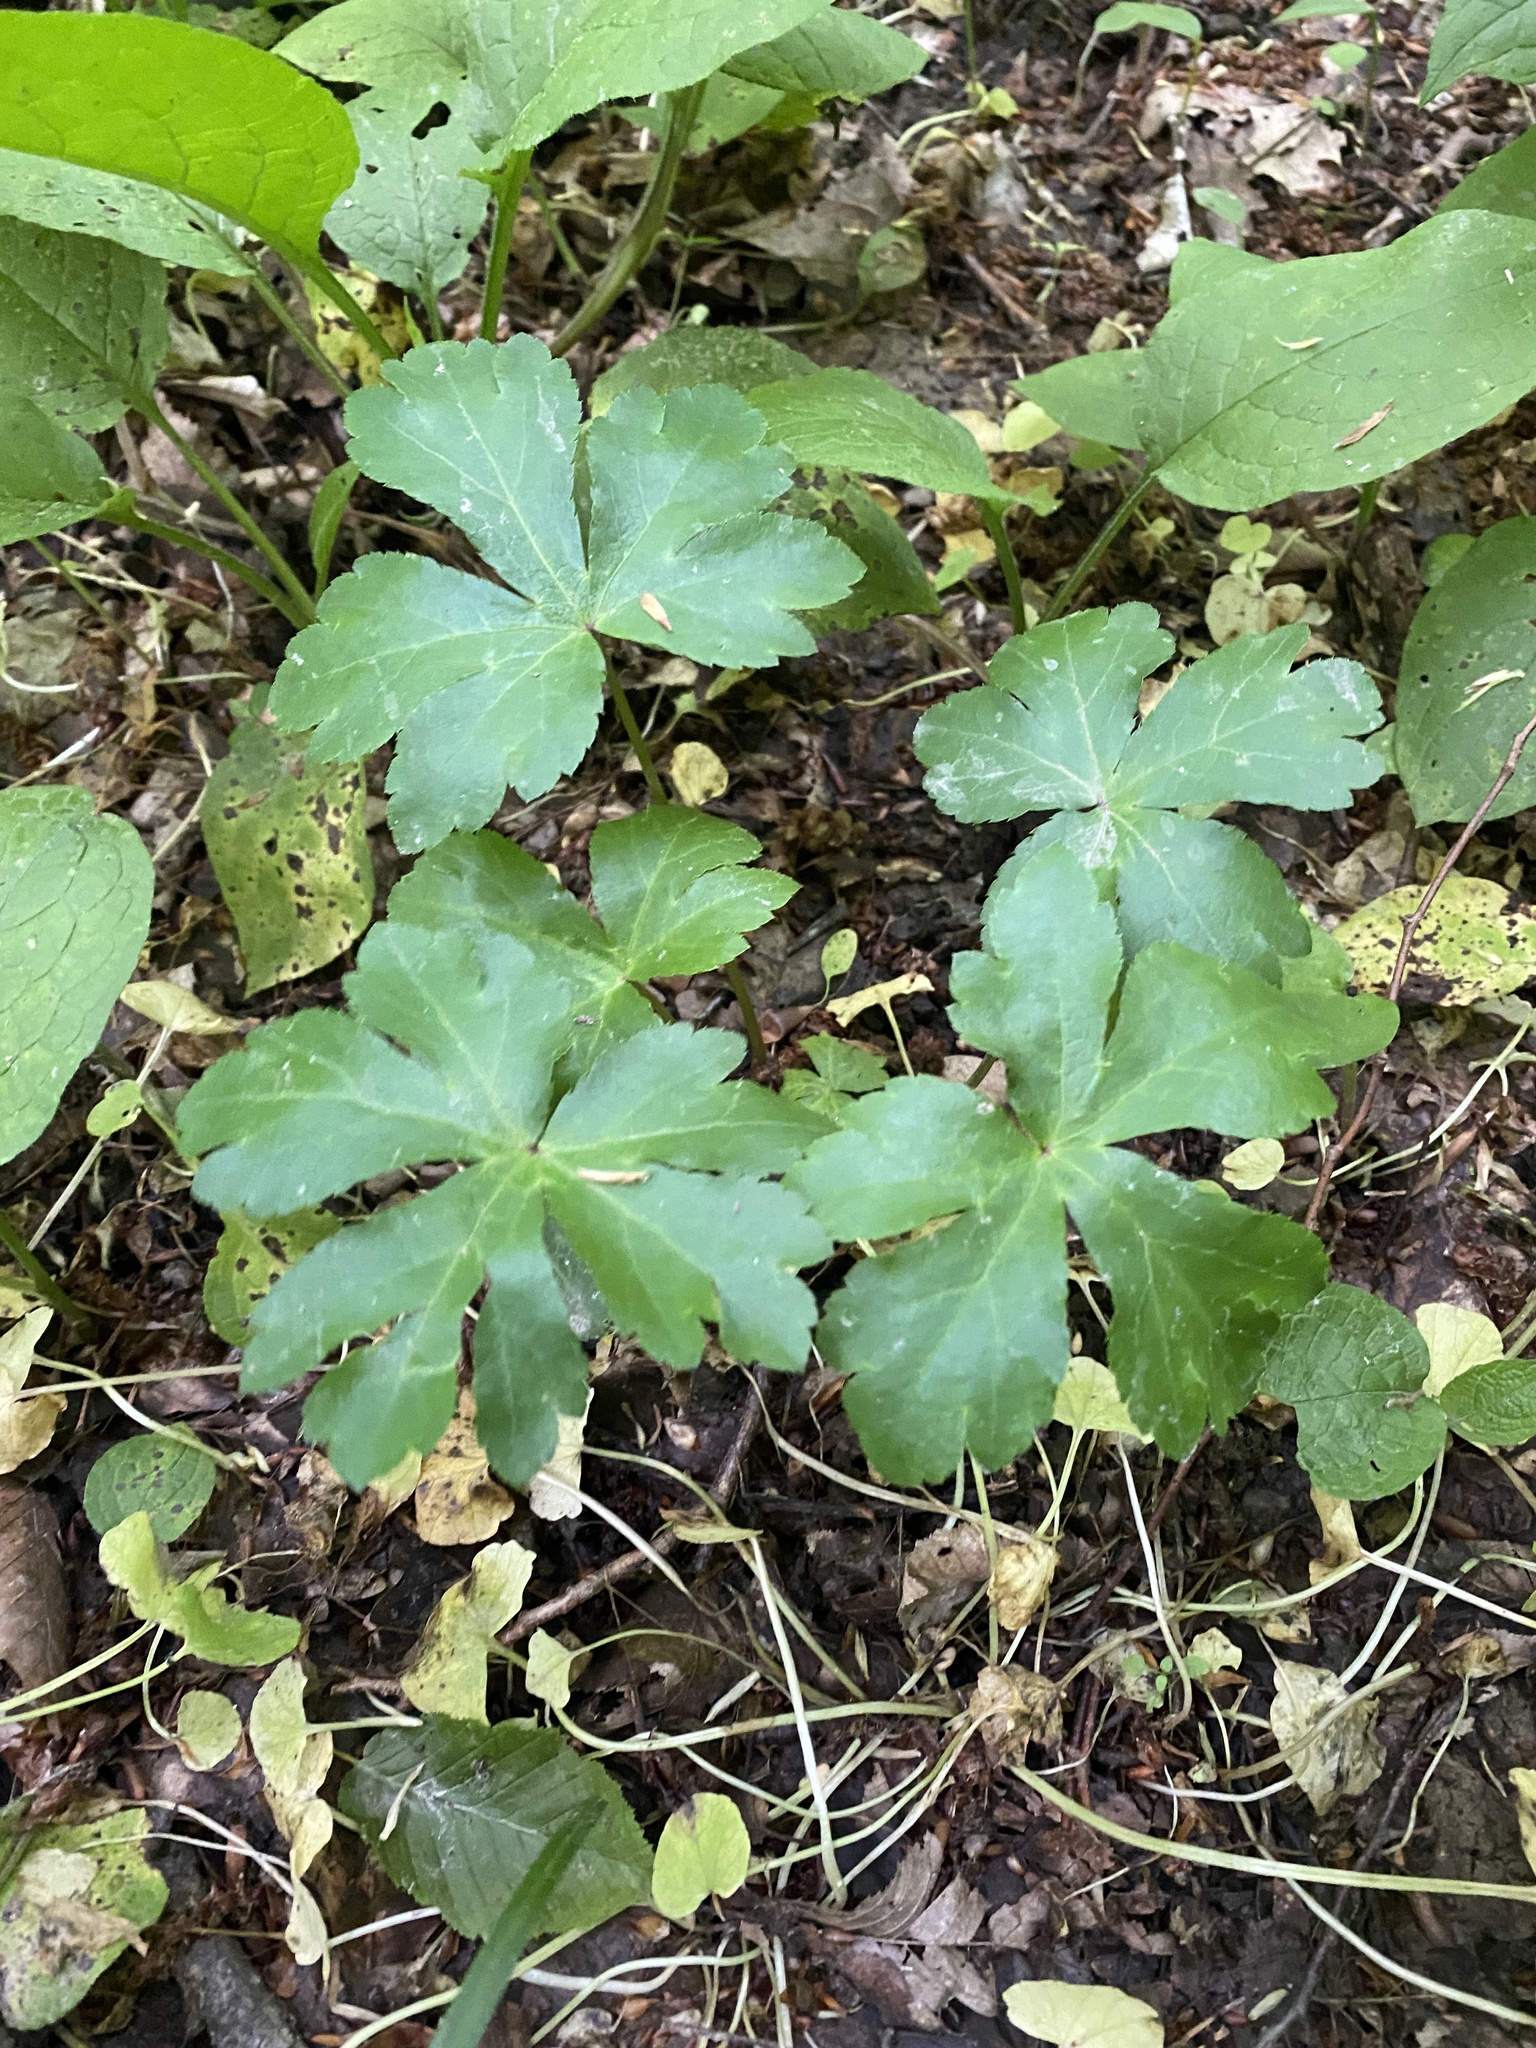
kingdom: Plantae
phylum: Tracheophyta
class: Magnoliopsida
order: Apiales
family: Apiaceae
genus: Sanicula
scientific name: Sanicula europaea
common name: Sanicle
